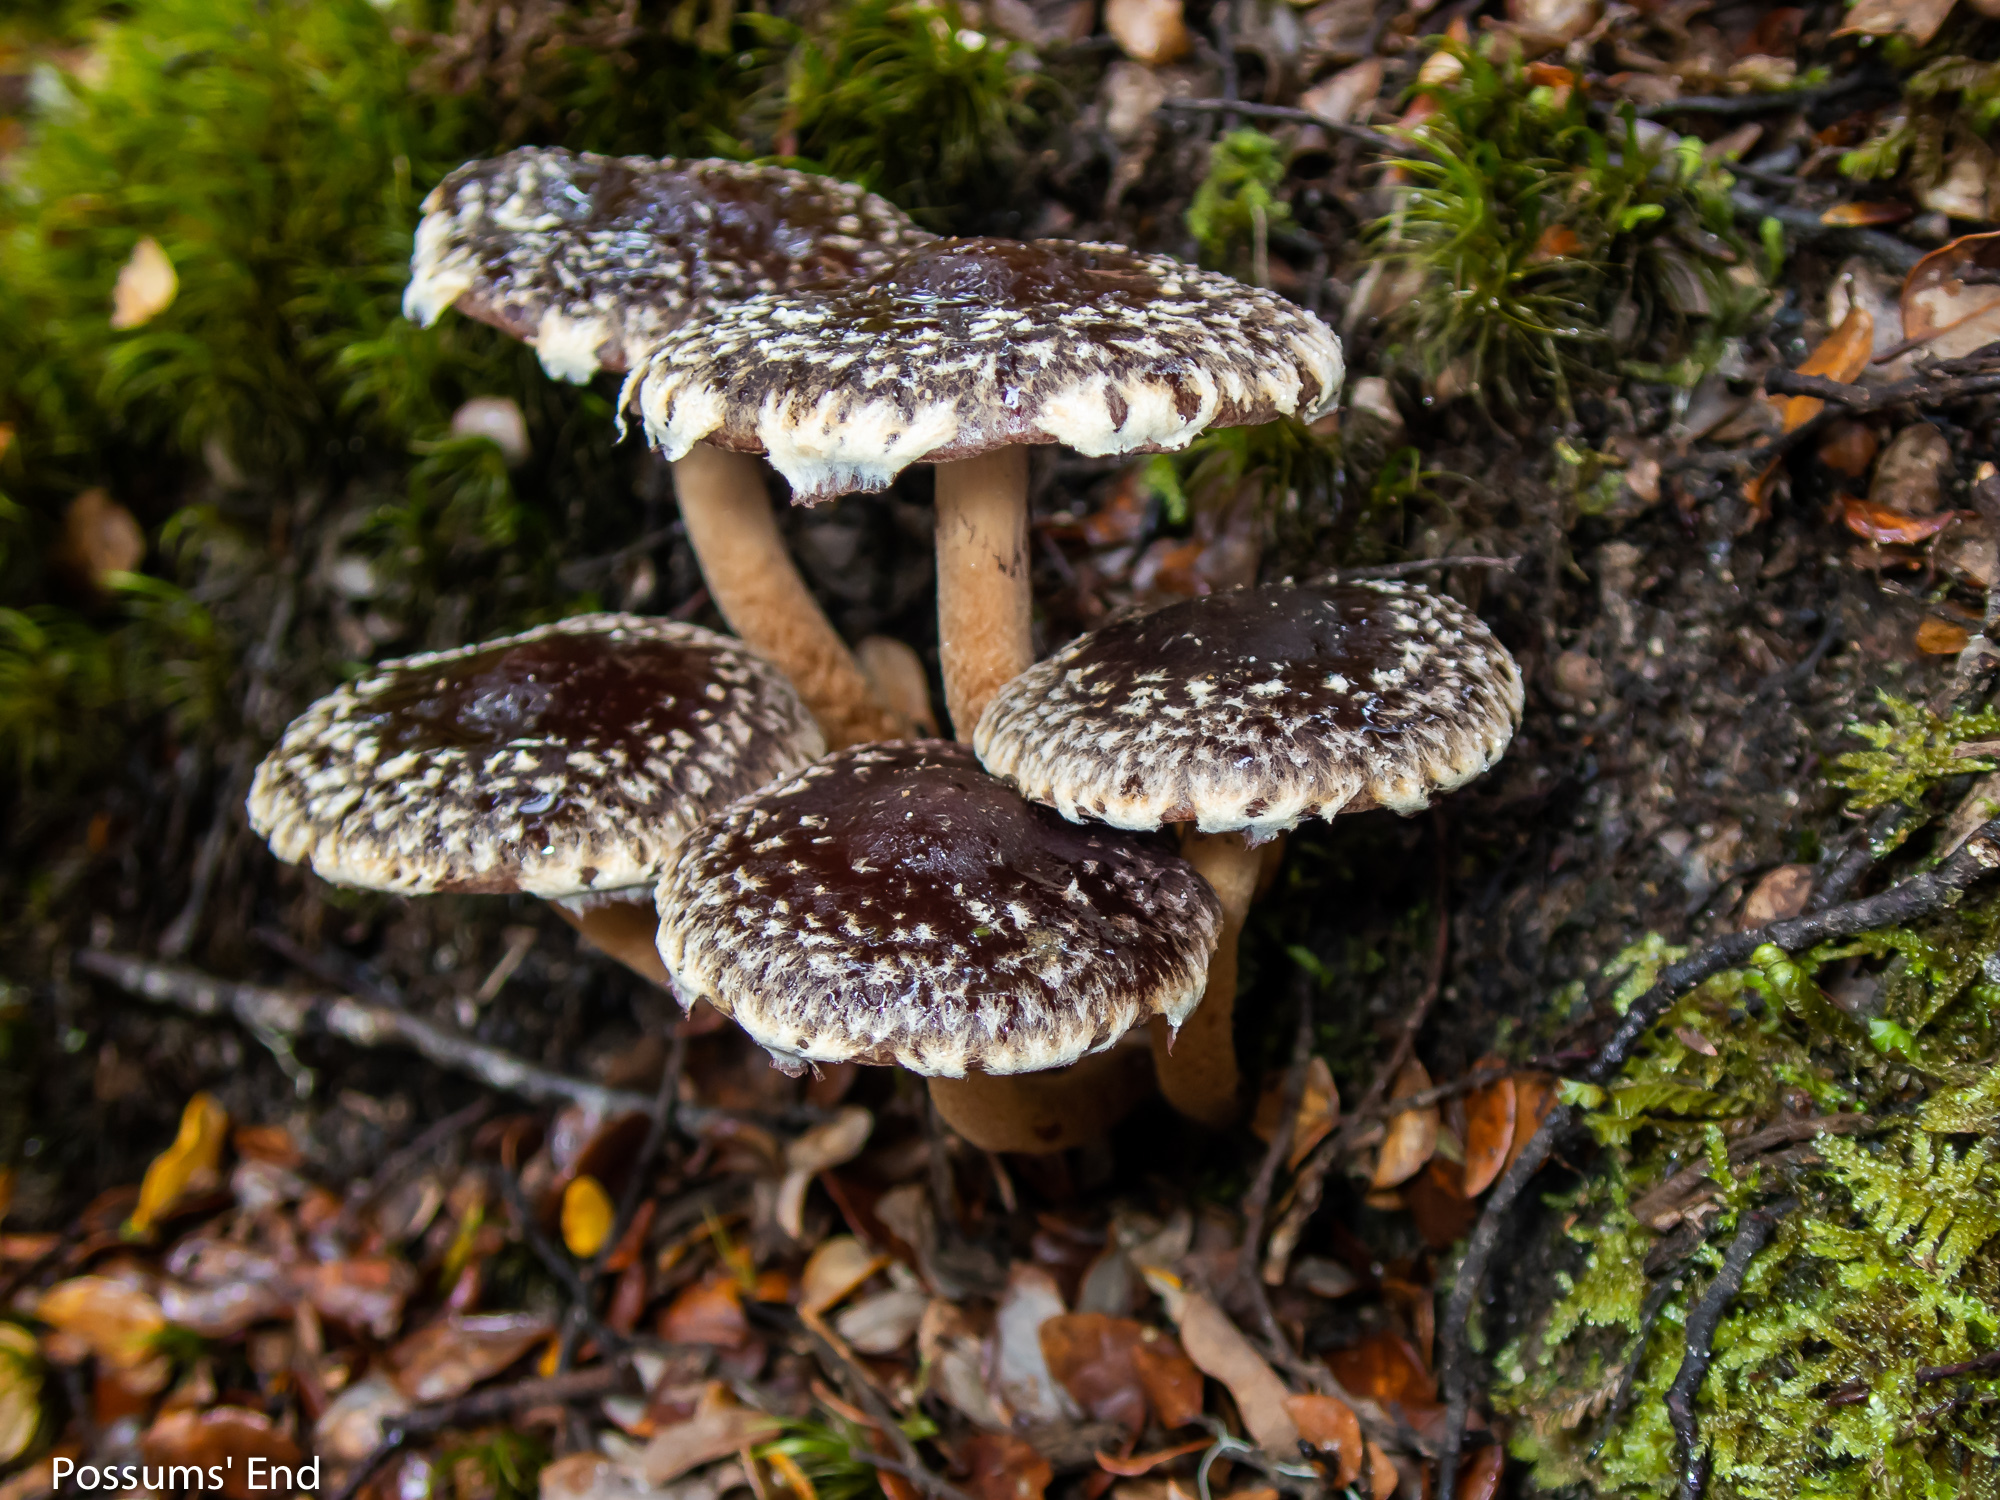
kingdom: Fungi
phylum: Basidiomycota
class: Agaricomycetes
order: Agaricales
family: Strophariaceae
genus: Hypholoma
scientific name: Hypholoma brunneum
